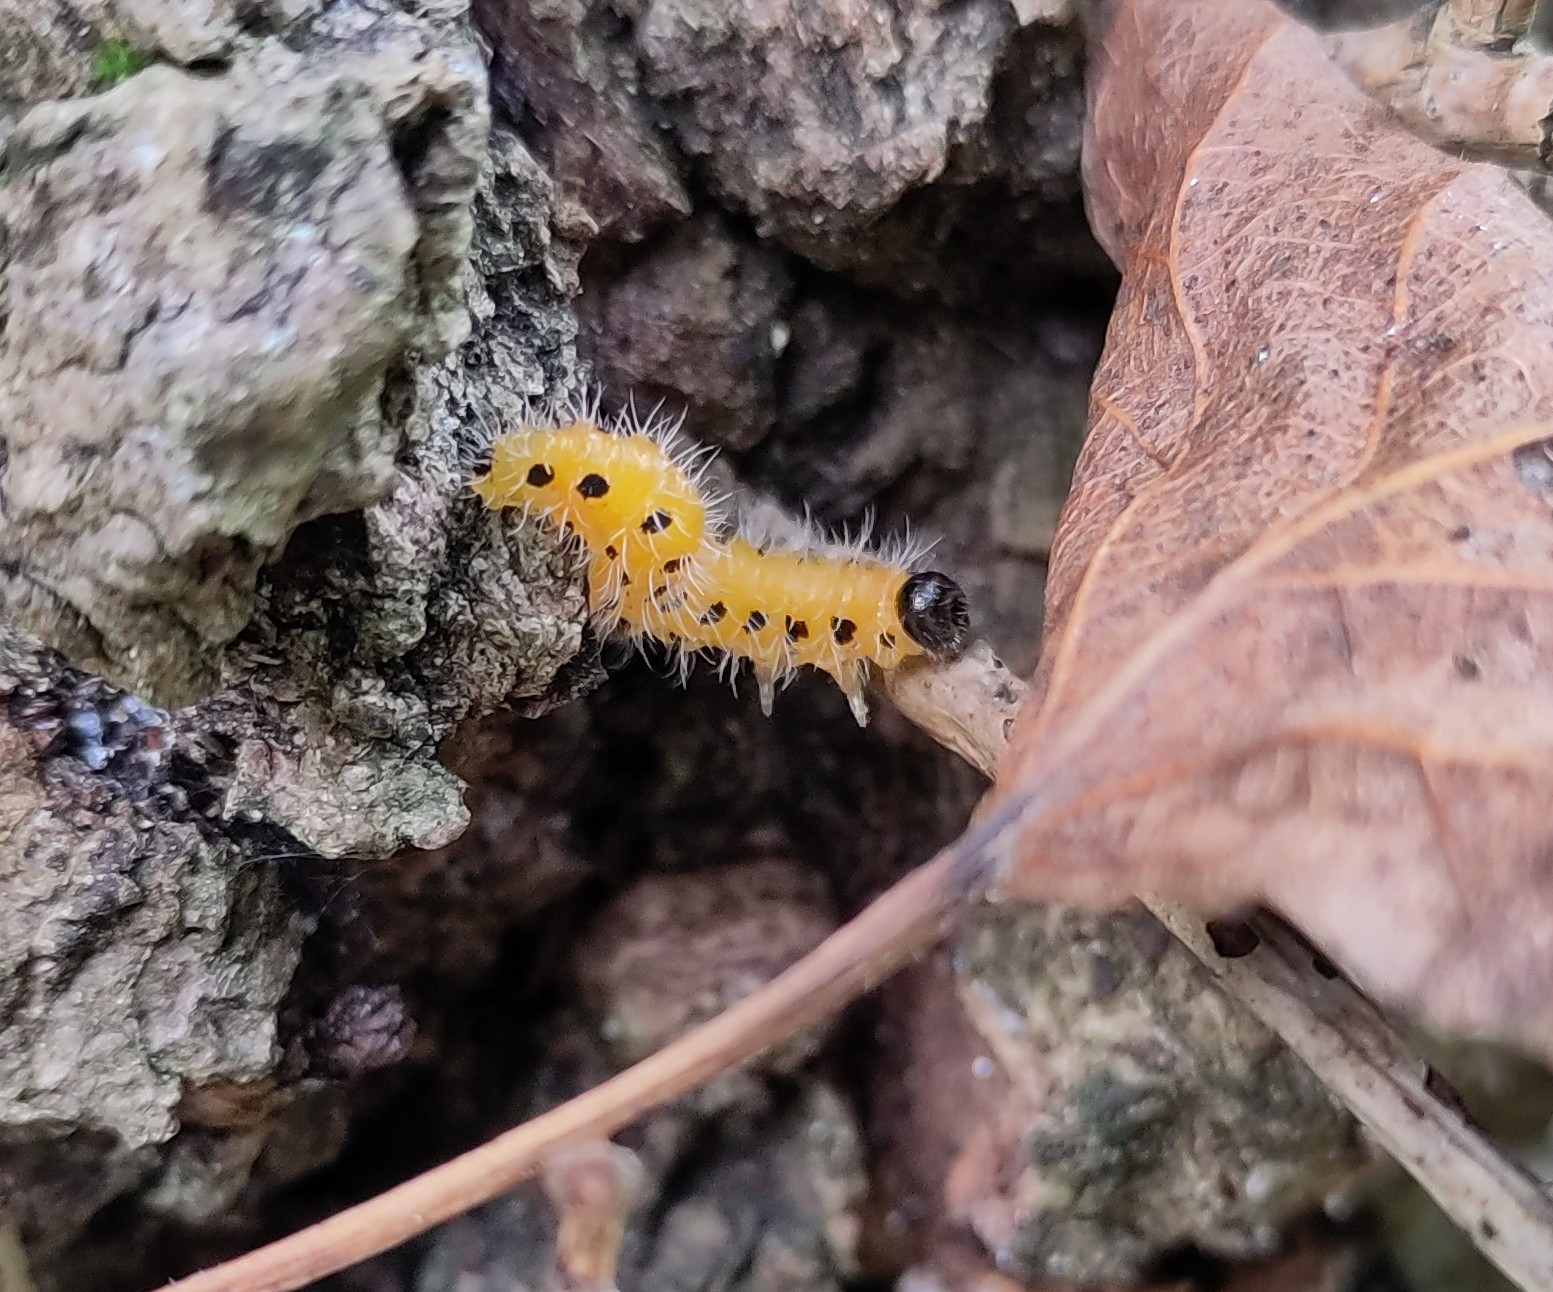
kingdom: Animalia
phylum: Arthropoda
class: Insecta
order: Hymenoptera
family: Tenthredinidae
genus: Cladius
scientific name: Cladius grandis
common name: Common sawfly
